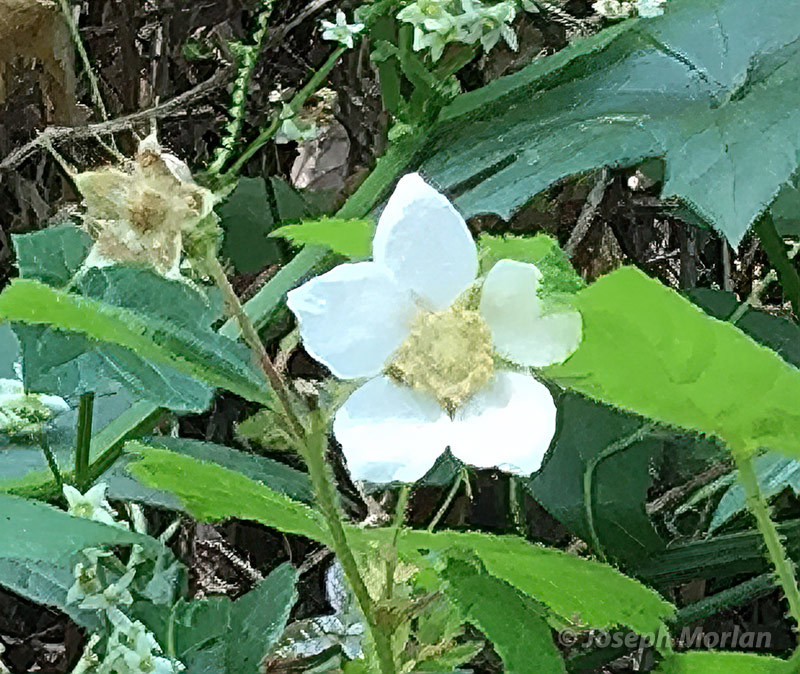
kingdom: Plantae
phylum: Tracheophyta
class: Magnoliopsida
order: Rosales
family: Rosaceae
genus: Rubus
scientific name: Rubus parviflorus
